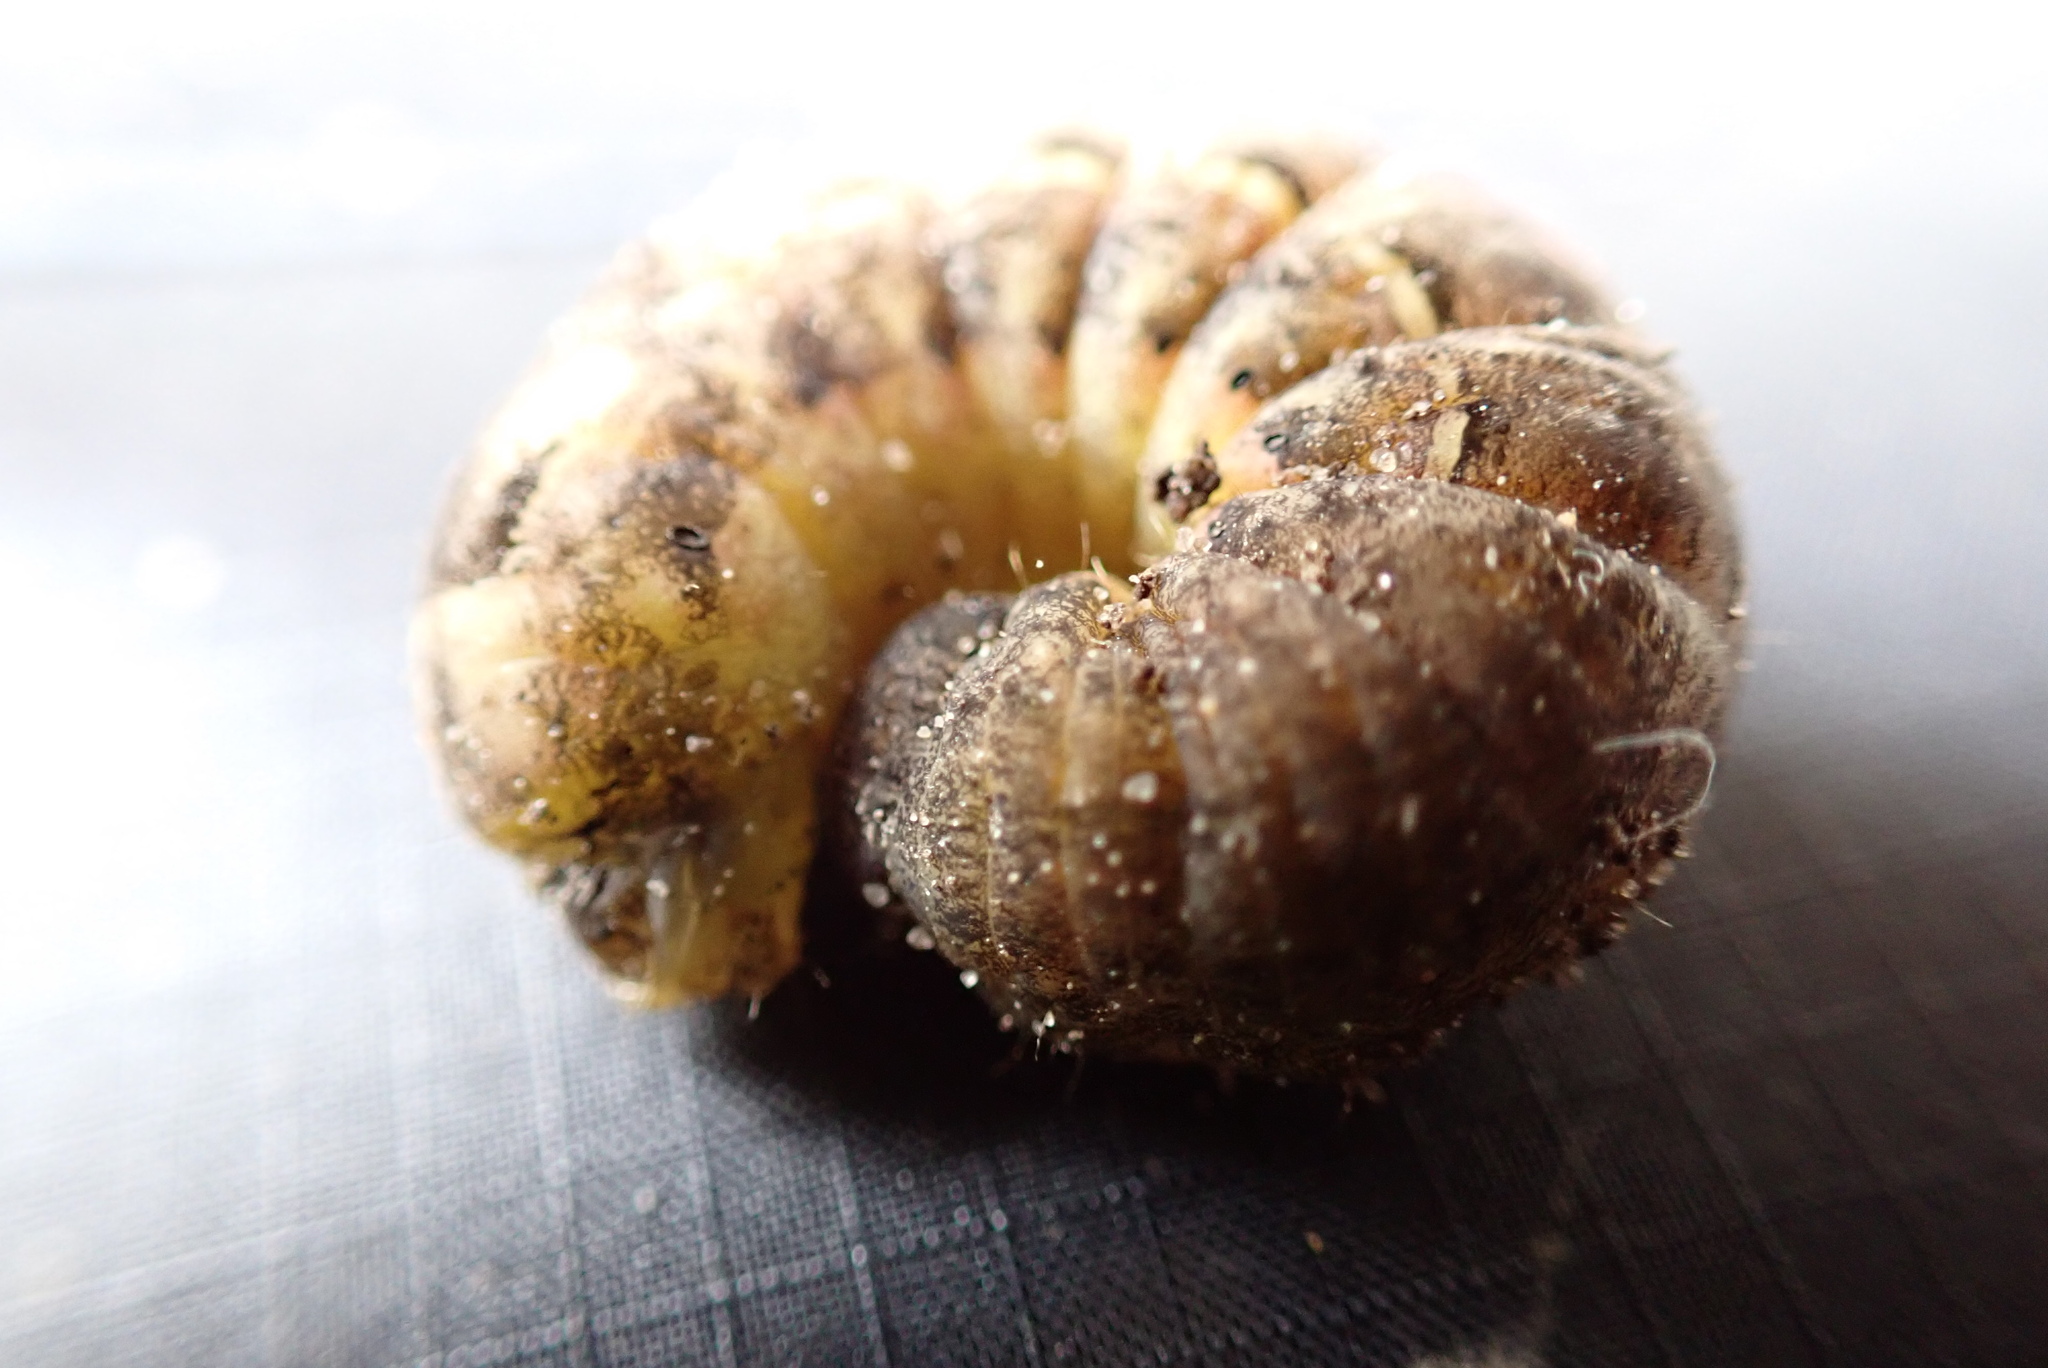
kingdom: Animalia
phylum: Arthropoda
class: Insecta
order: Lepidoptera
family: Noctuidae
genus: Noctua
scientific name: Noctua pronuba
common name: Large yellow underwing
